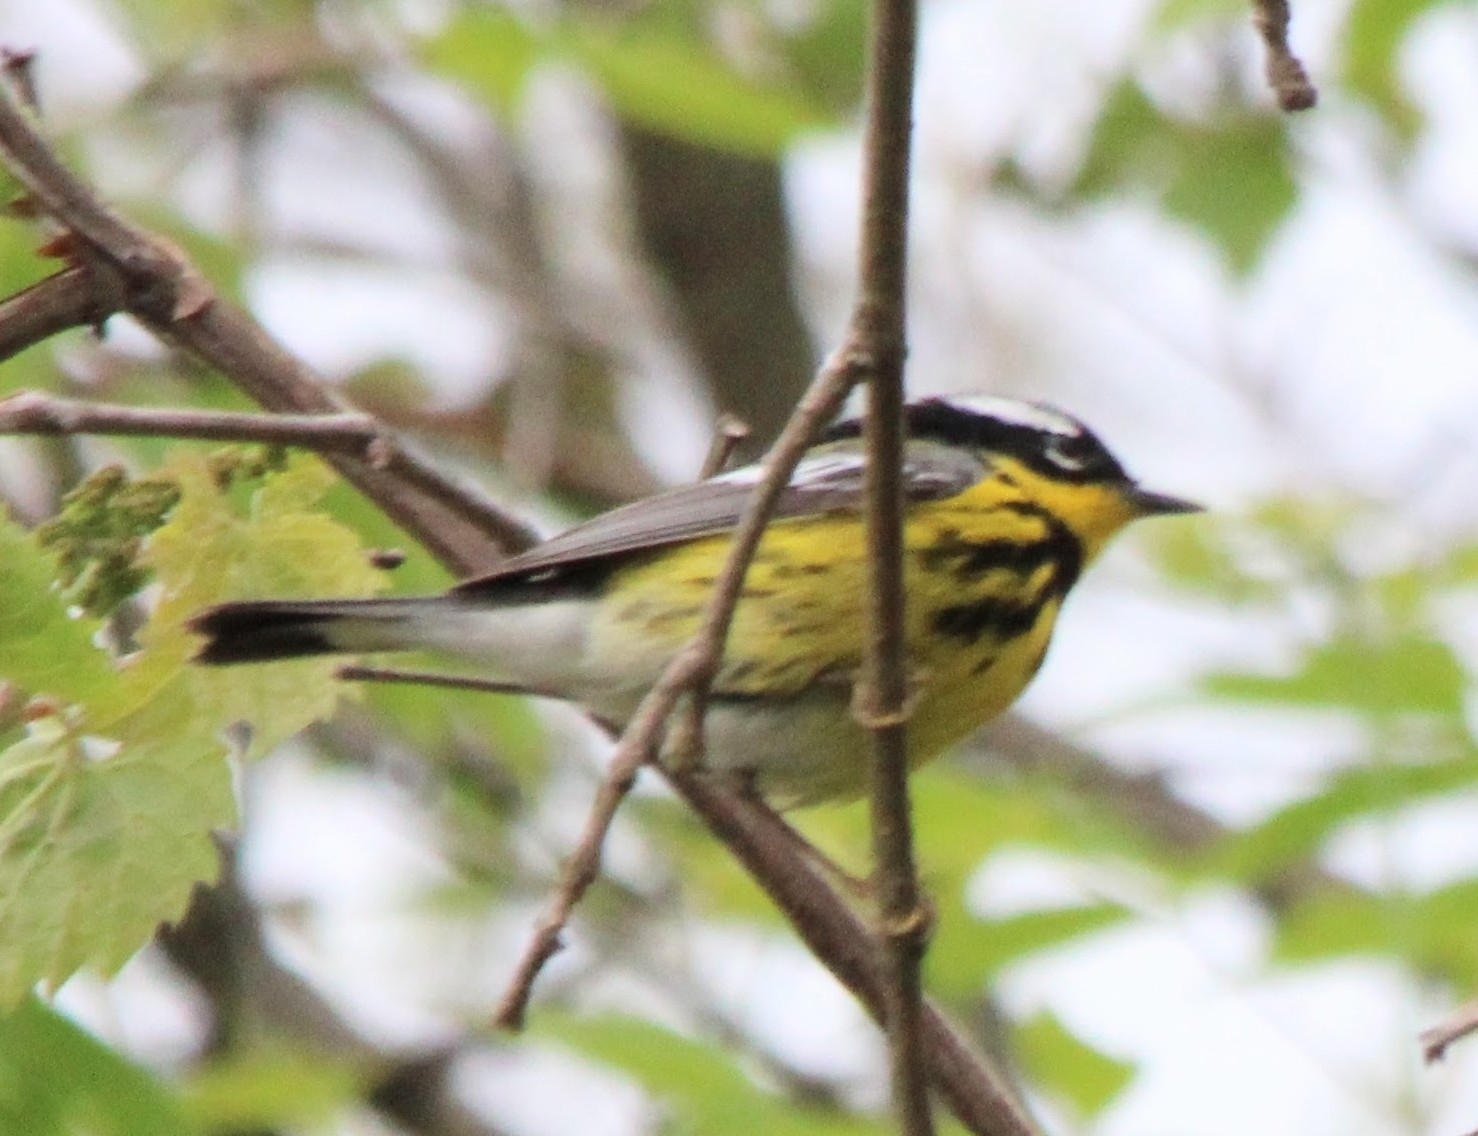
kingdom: Animalia
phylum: Chordata
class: Aves
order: Passeriformes
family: Parulidae
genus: Setophaga
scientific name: Setophaga magnolia
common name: Magnolia warbler
